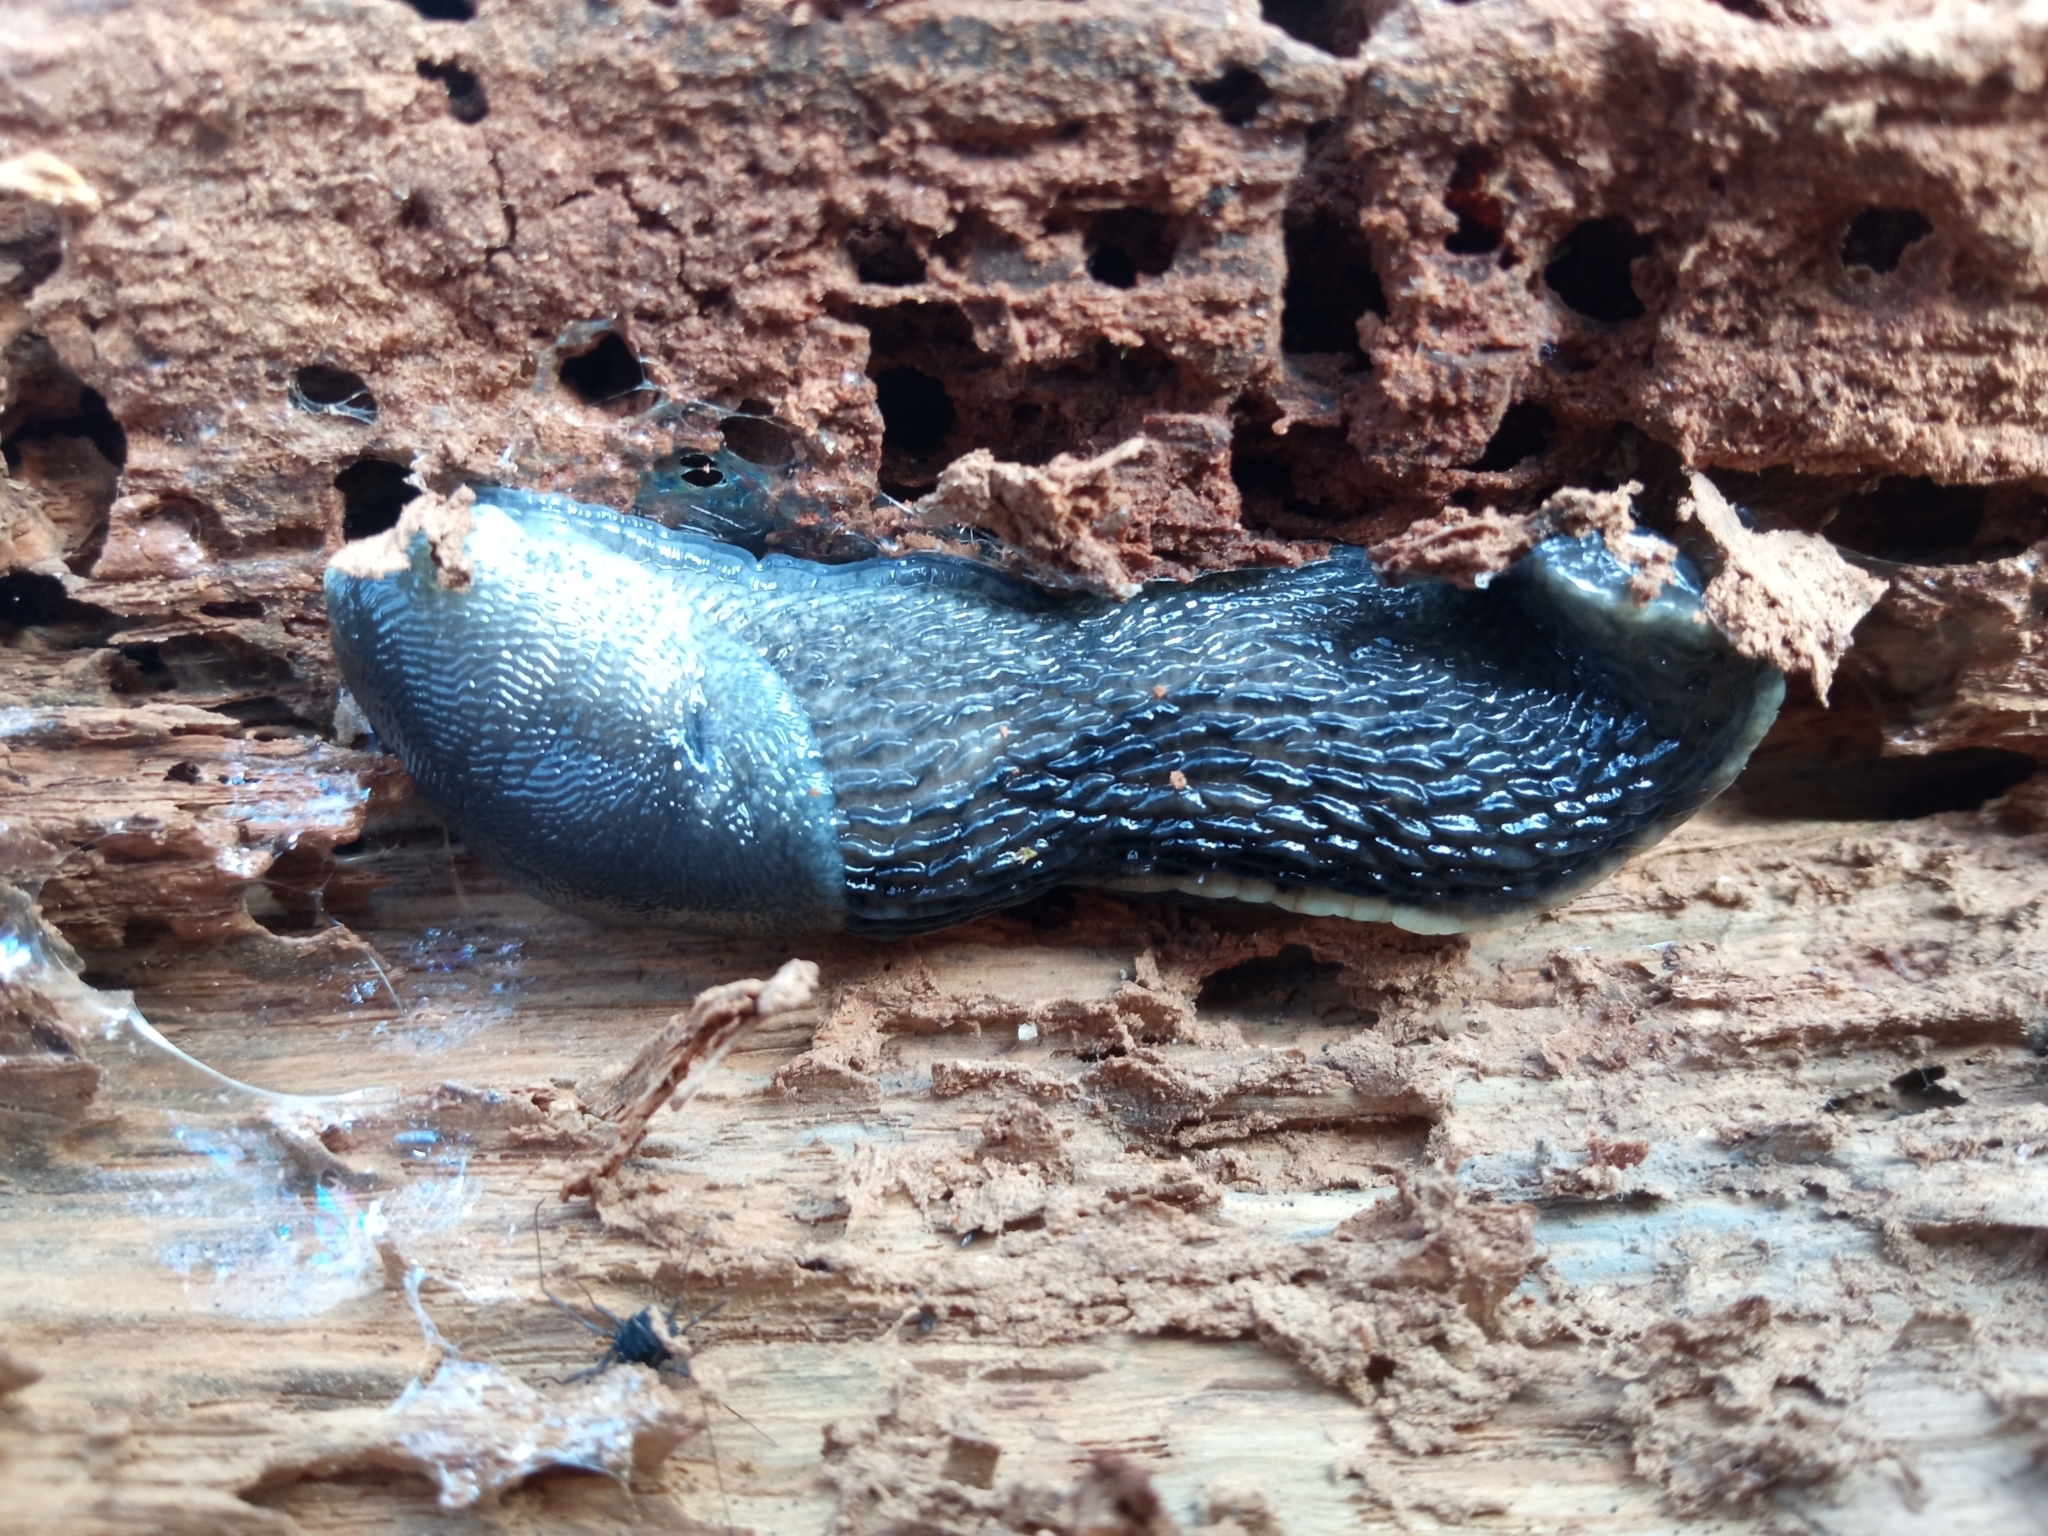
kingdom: Animalia
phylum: Mollusca
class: Gastropoda
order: Stylommatophora
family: Limacidae
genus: Limax
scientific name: Limax cinereoniger
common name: Ash-black slug
